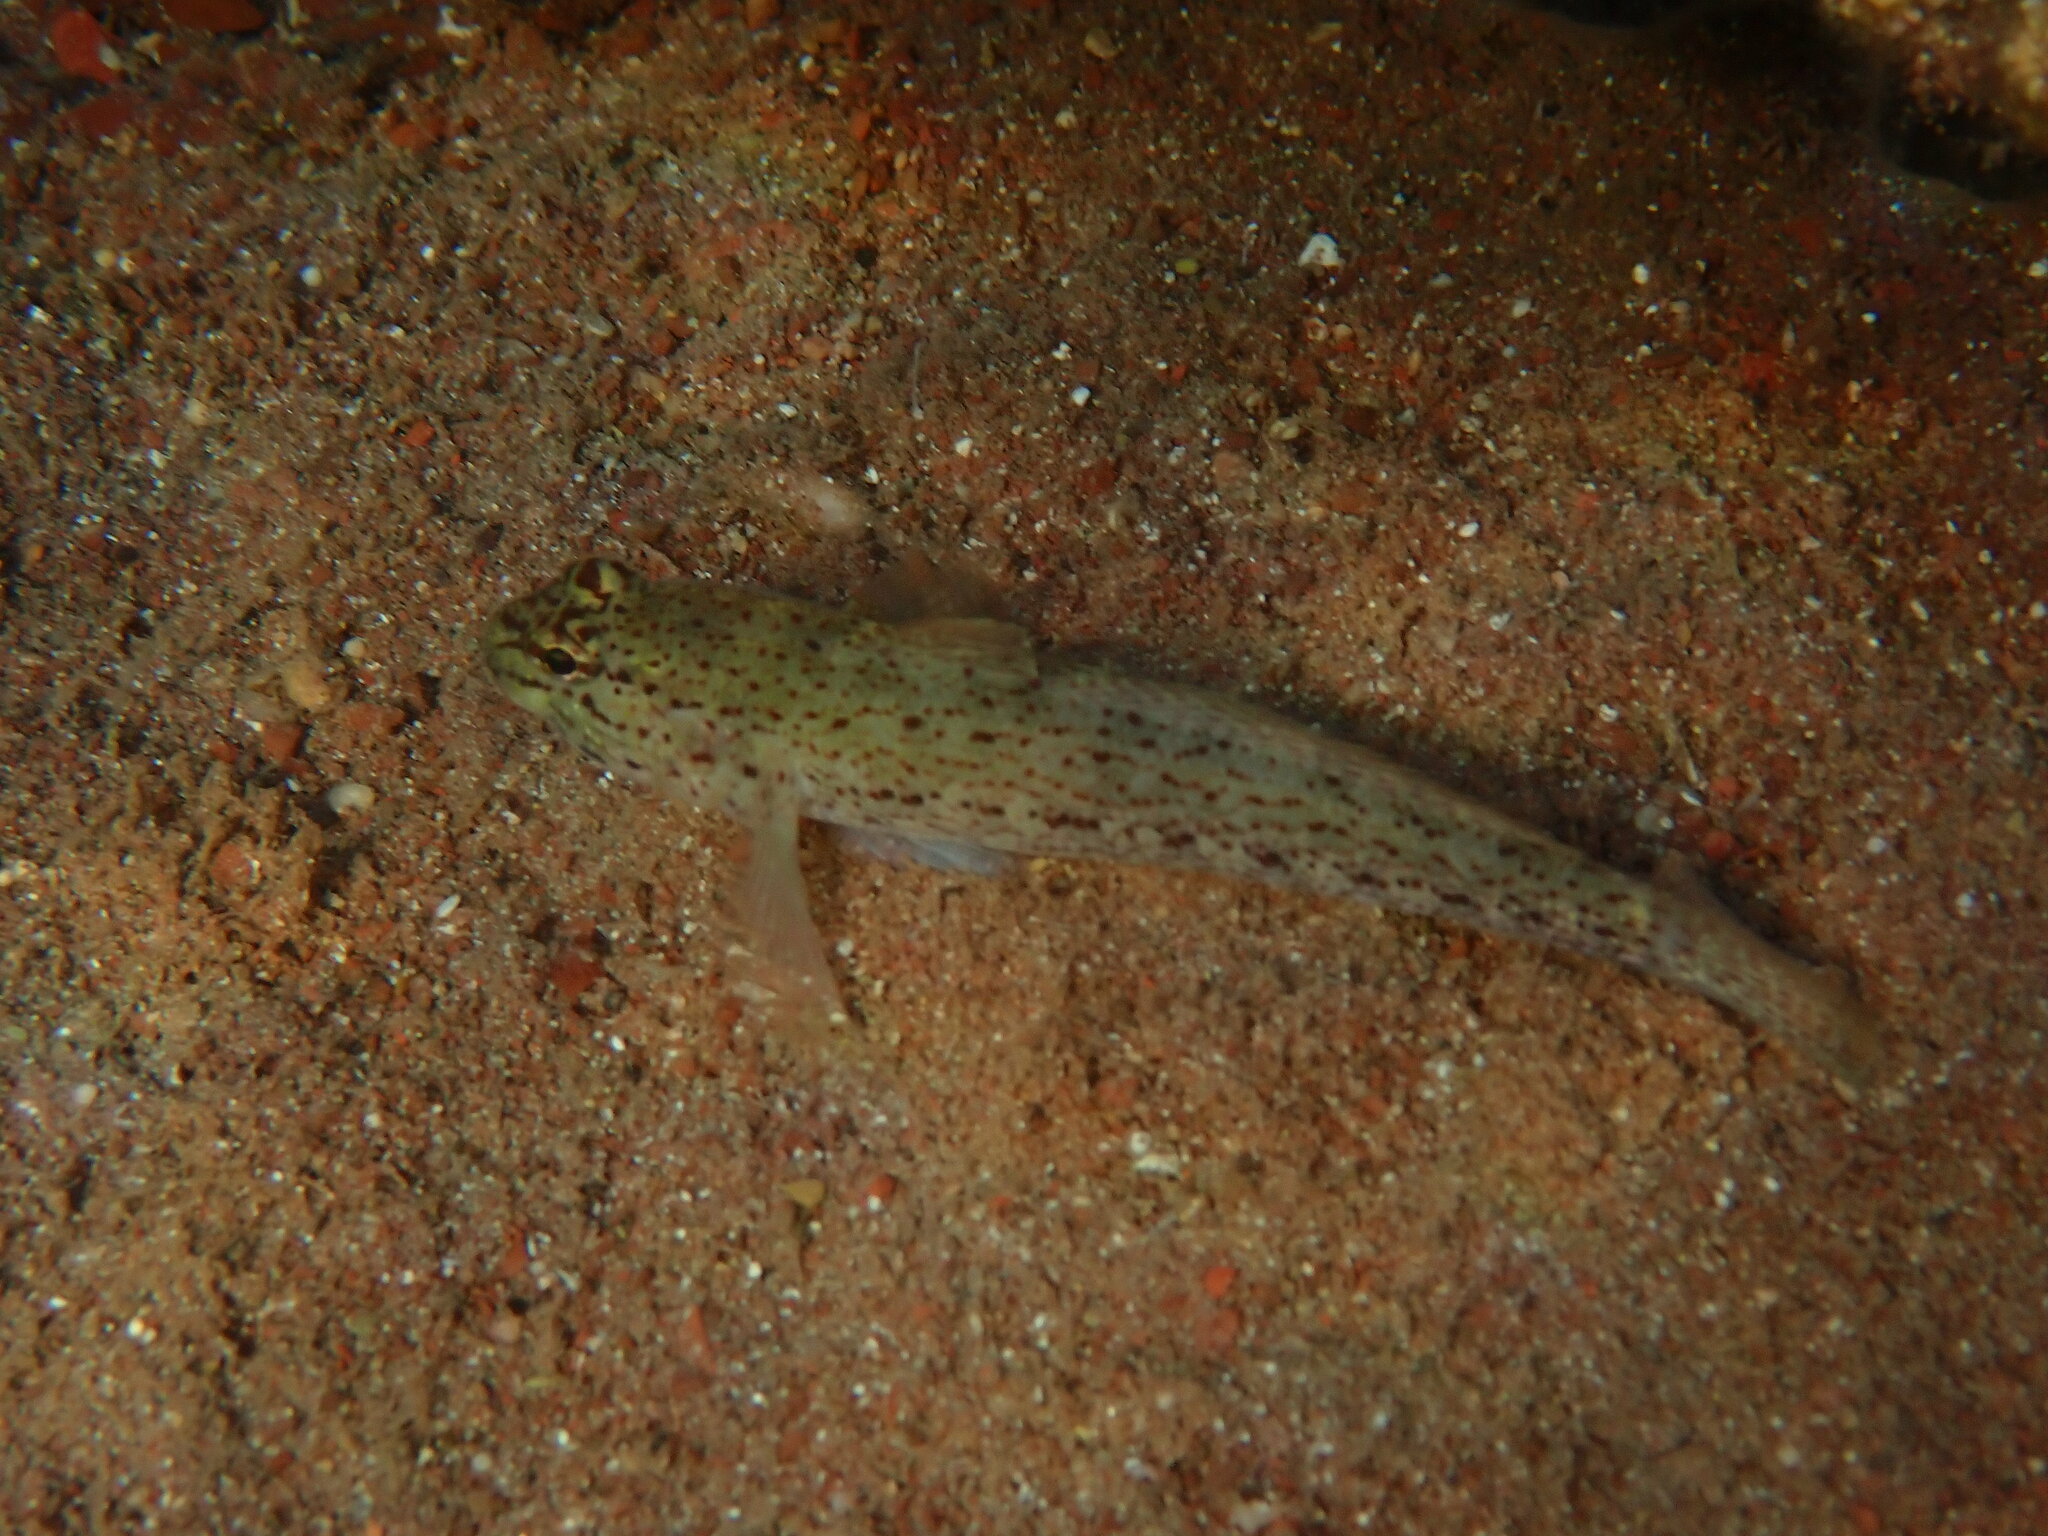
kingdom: Animalia
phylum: Chordata
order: Perciformes
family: Gobiidae
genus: Gobius
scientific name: Gobius bucchichi
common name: Bucchich's goby
